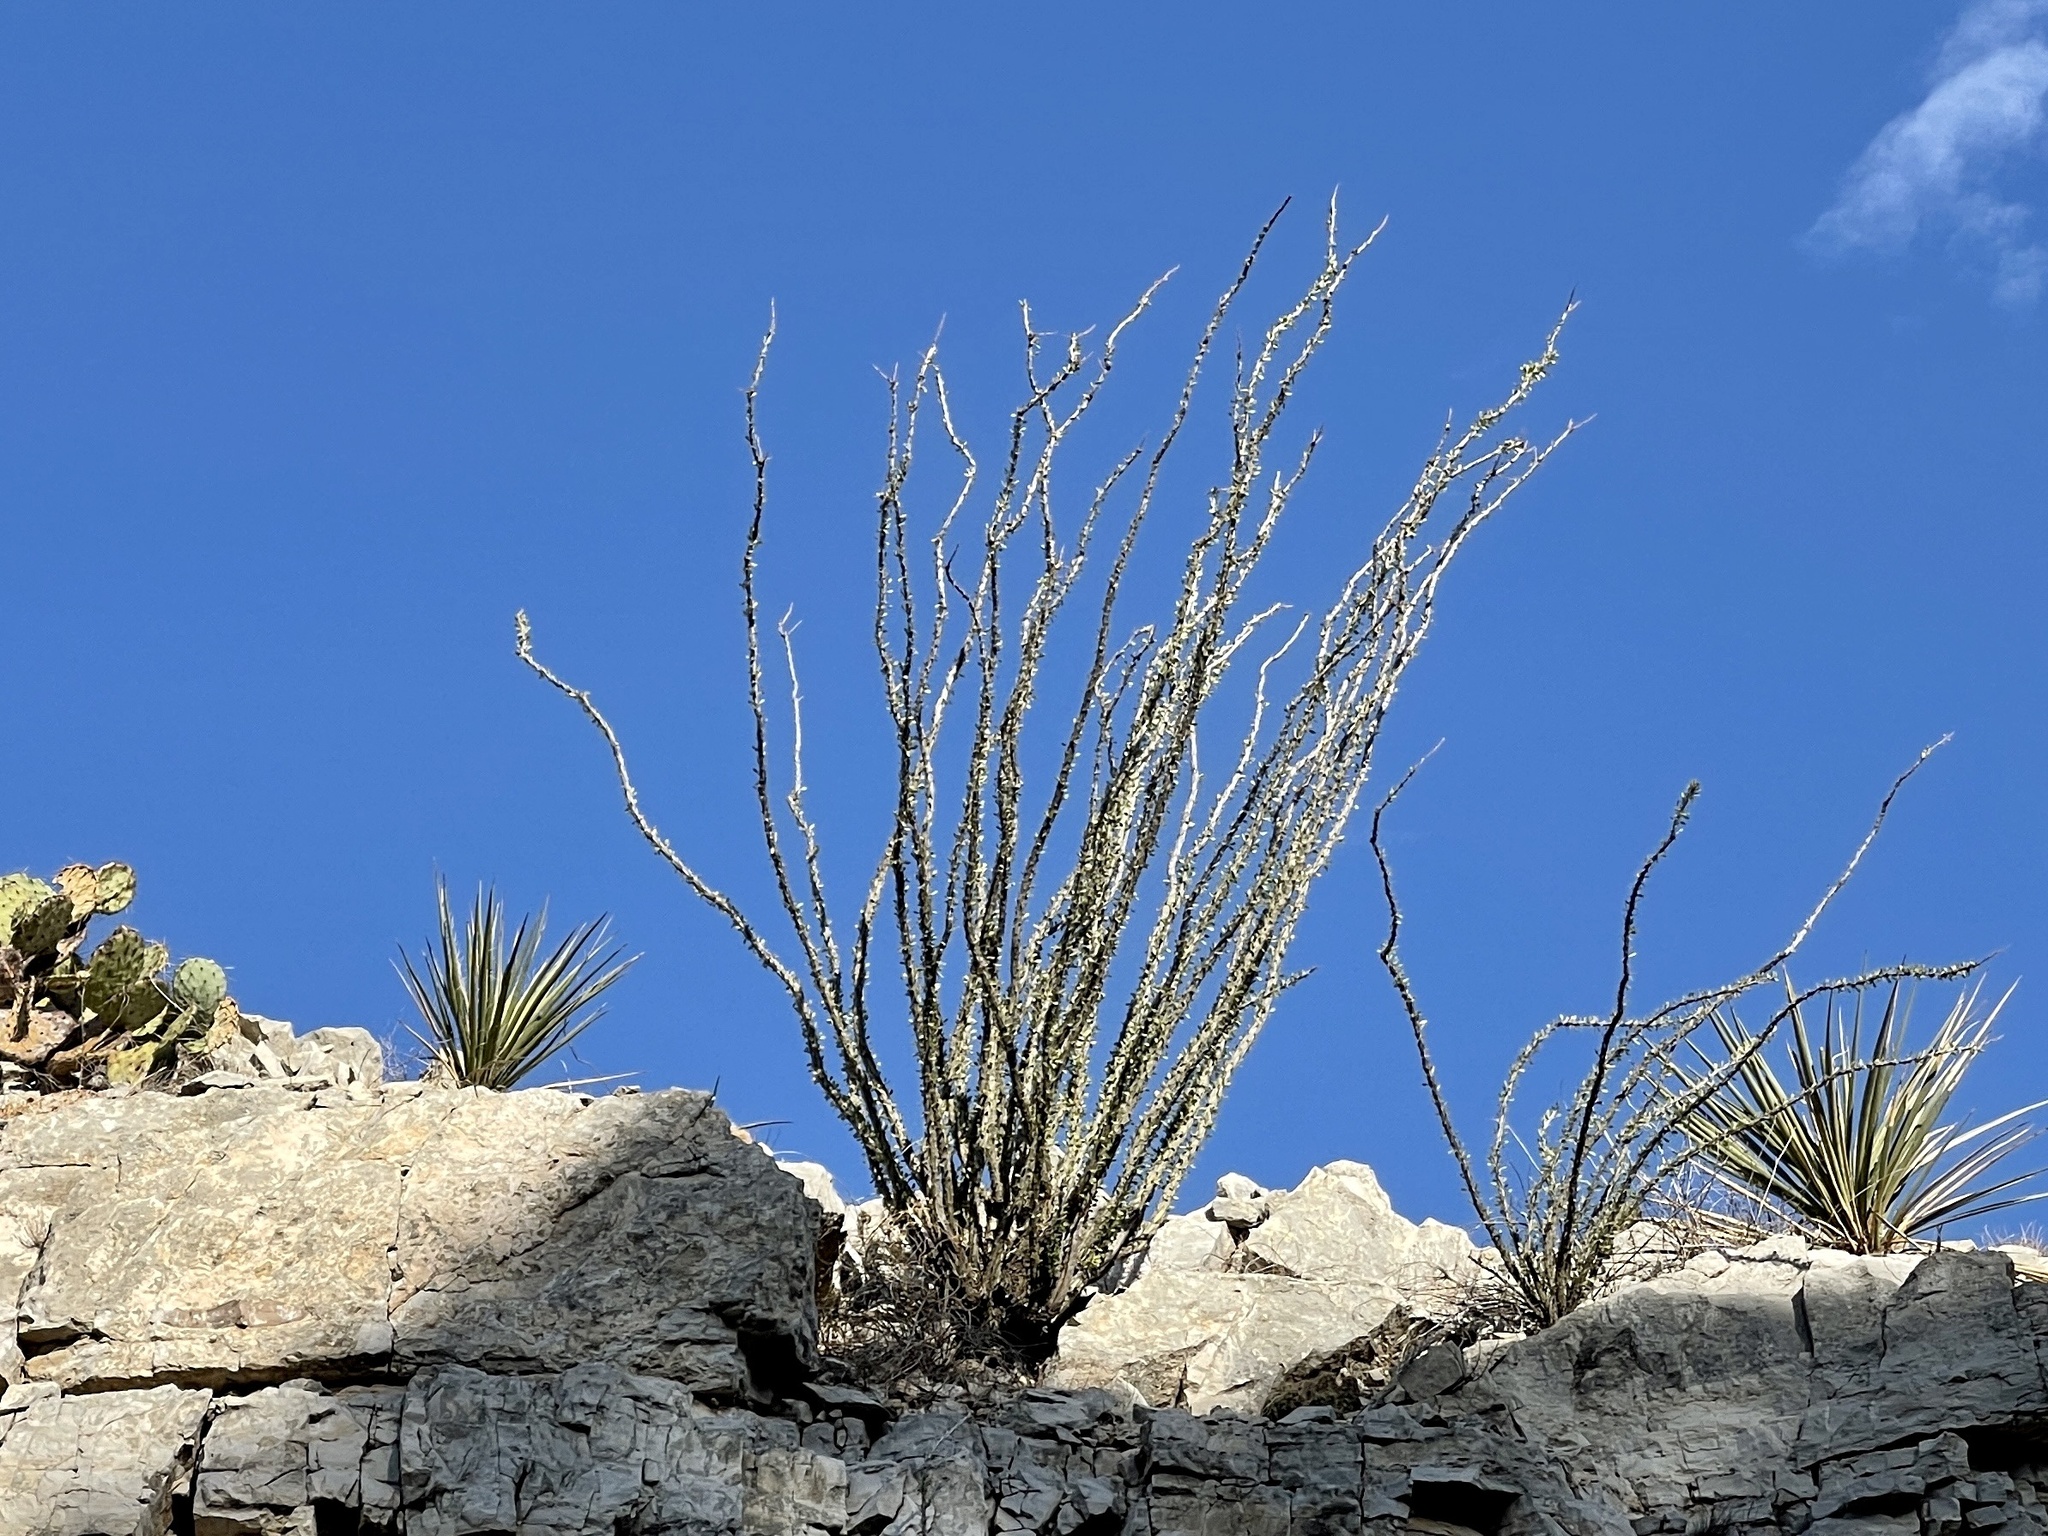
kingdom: Plantae
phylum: Tracheophyta
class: Magnoliopsida
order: Ericales
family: Fouquieriaceae
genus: Fouquieria
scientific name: Fouquieria splendens
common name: Vine-cactus
